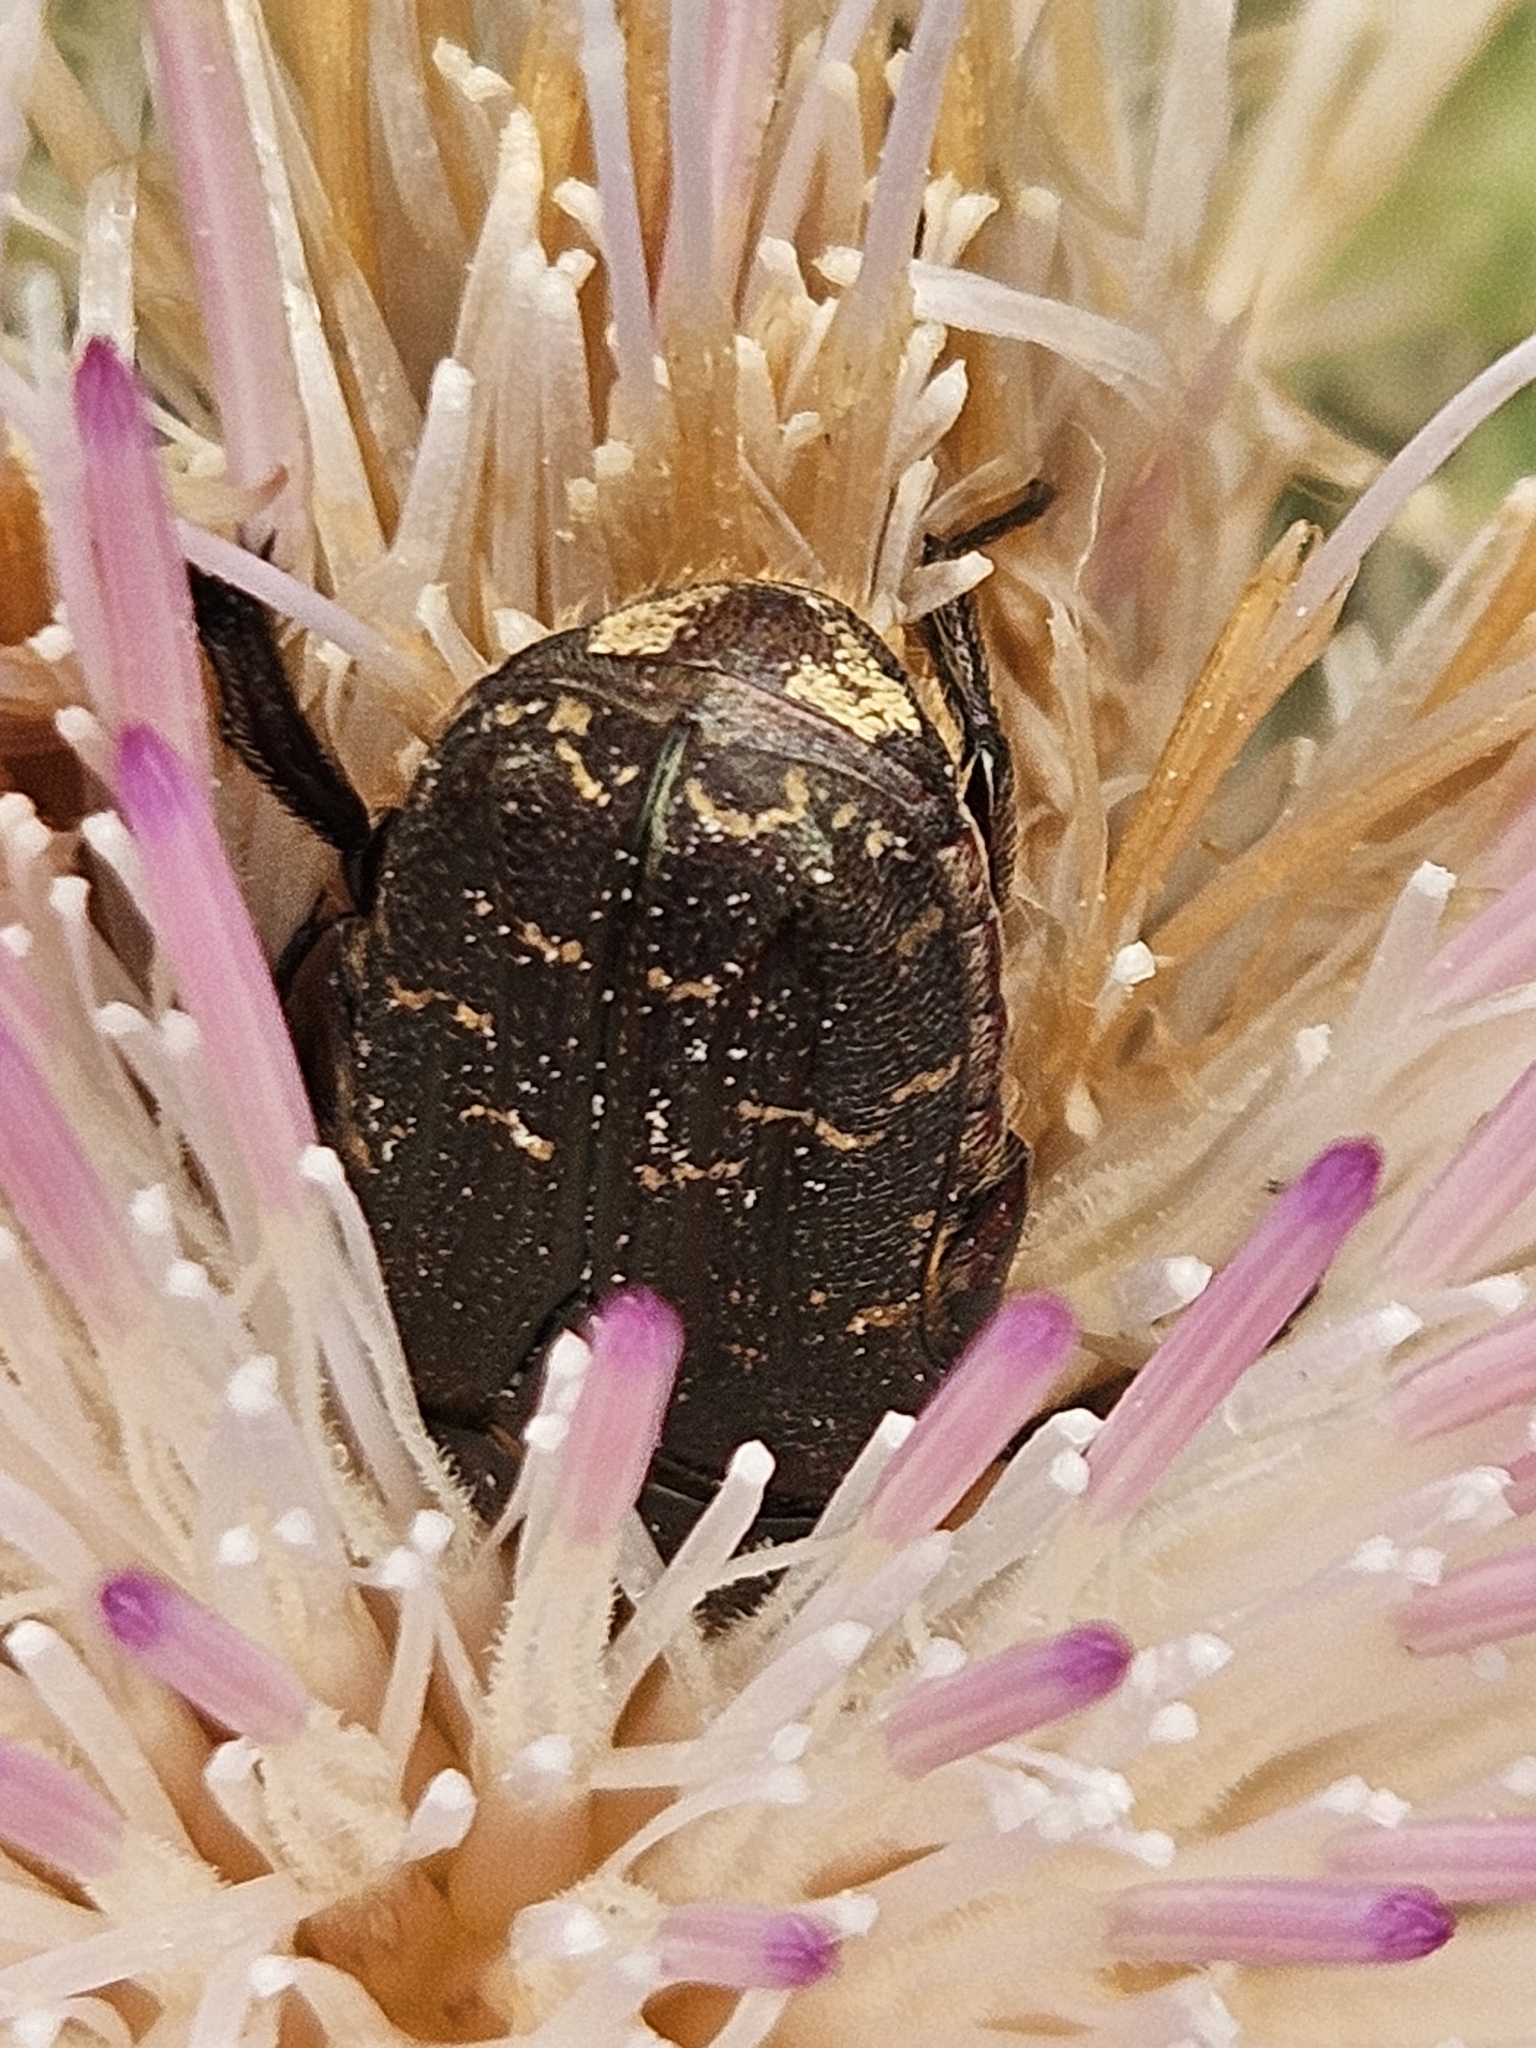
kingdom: Animalia
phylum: Arthropoda
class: Insecta
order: Coleoptera
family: Scarabaeidae
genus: Euphoria
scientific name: Euphoria sepulcralis
